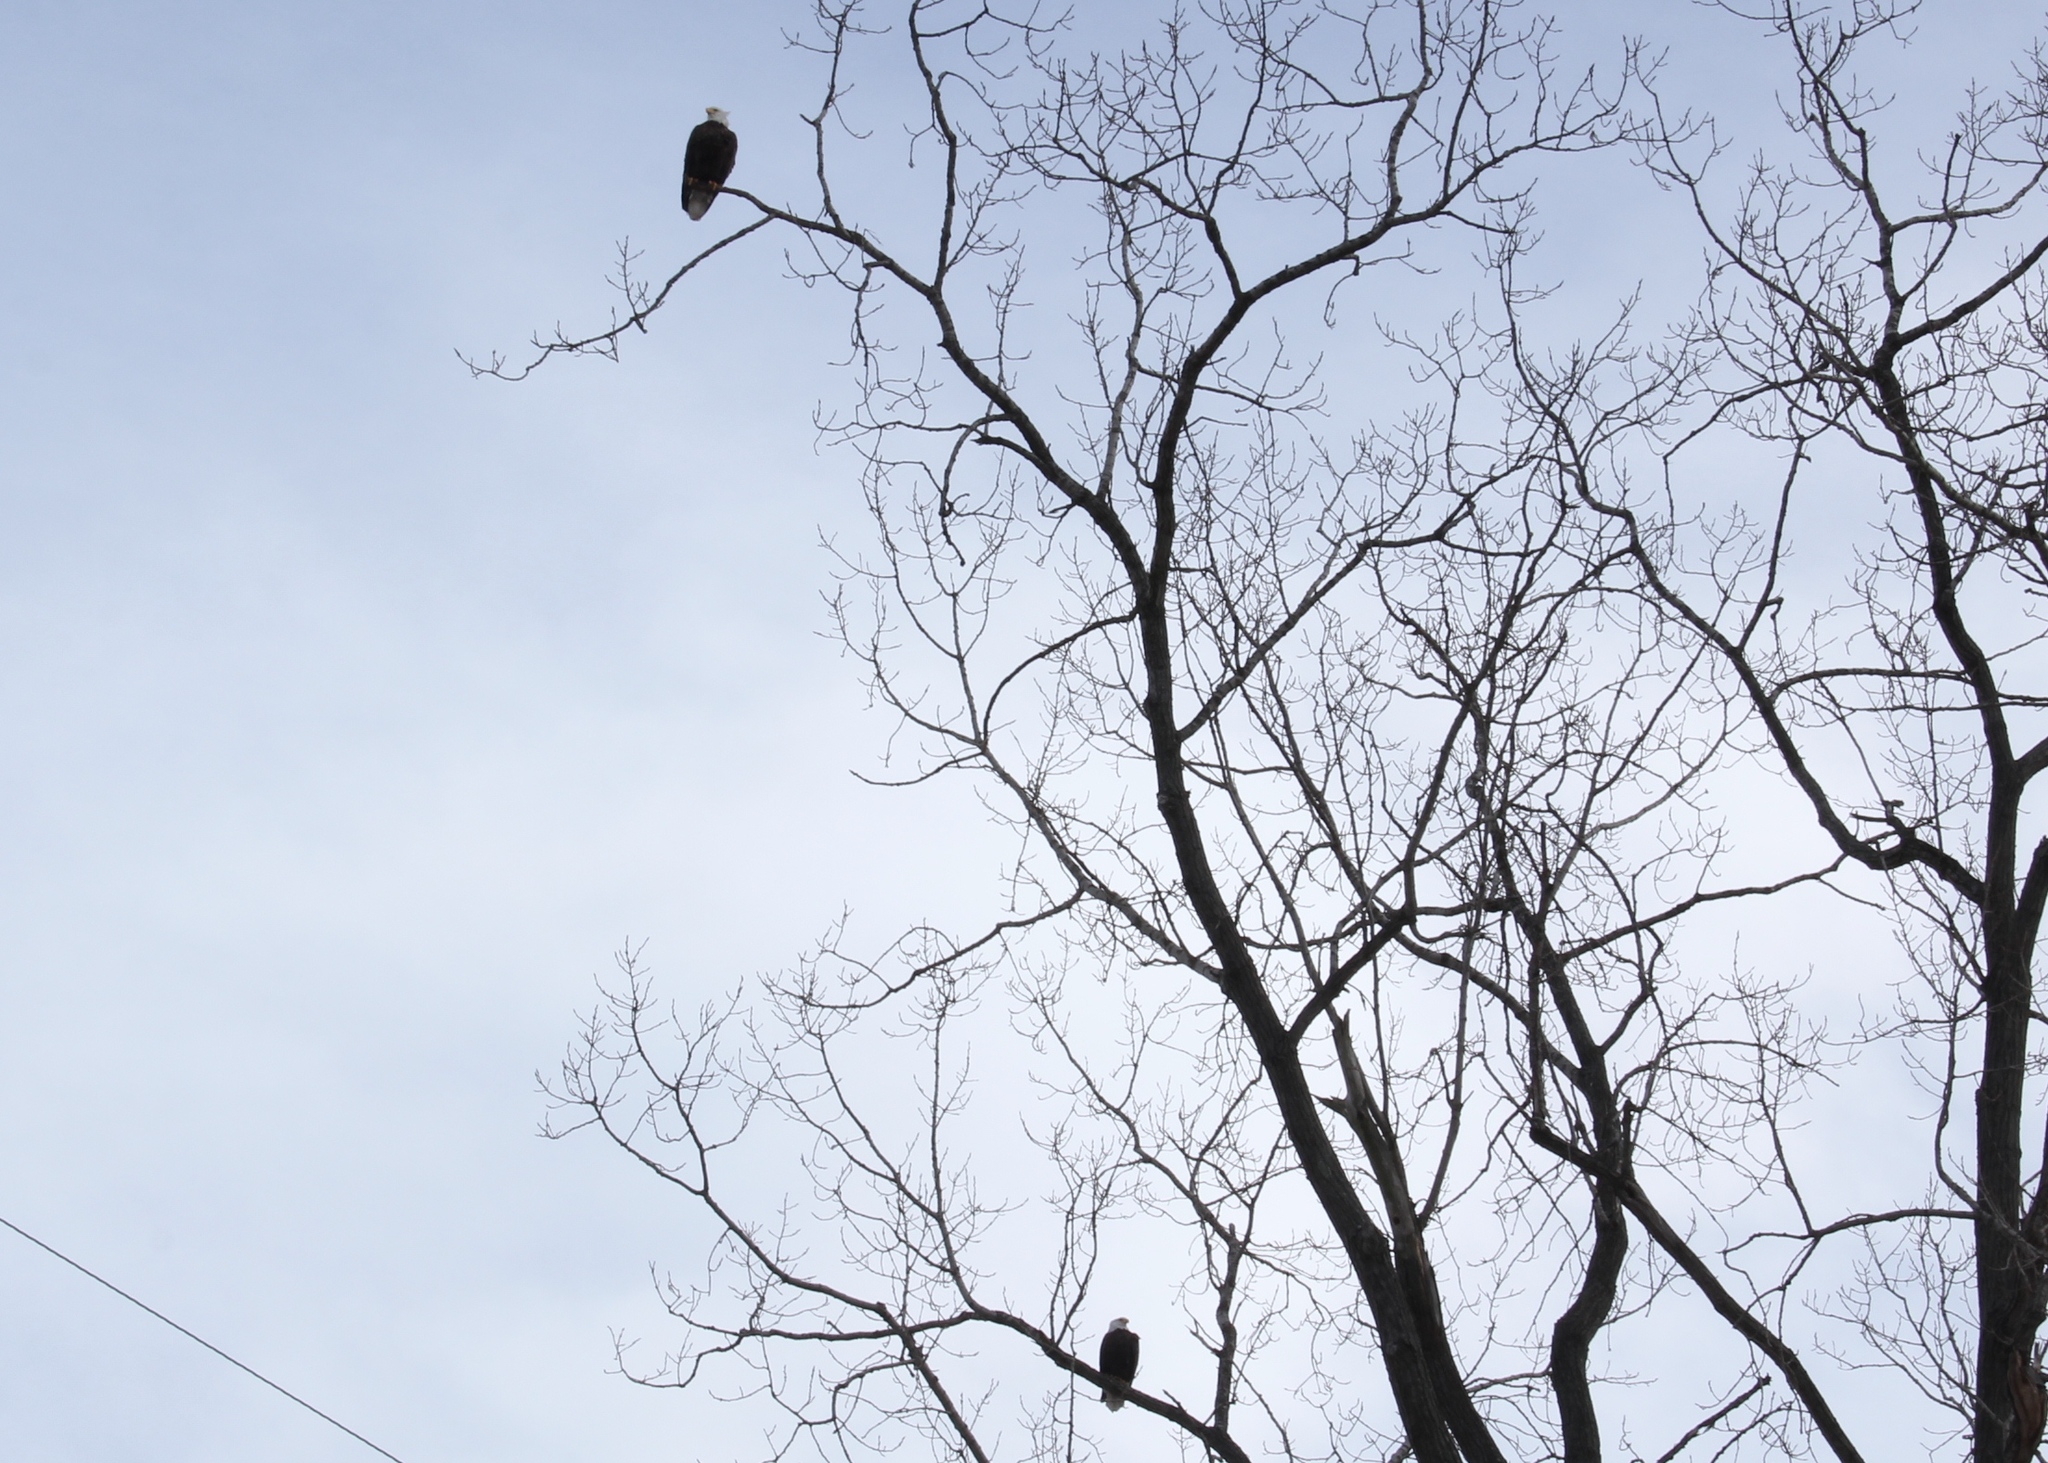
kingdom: Animalia
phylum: Chordata
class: Aves
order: Accipitriformes
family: Accipitridae
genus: Haliaeetus
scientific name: Haliaeetus leucocephalus
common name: Bald eagle
